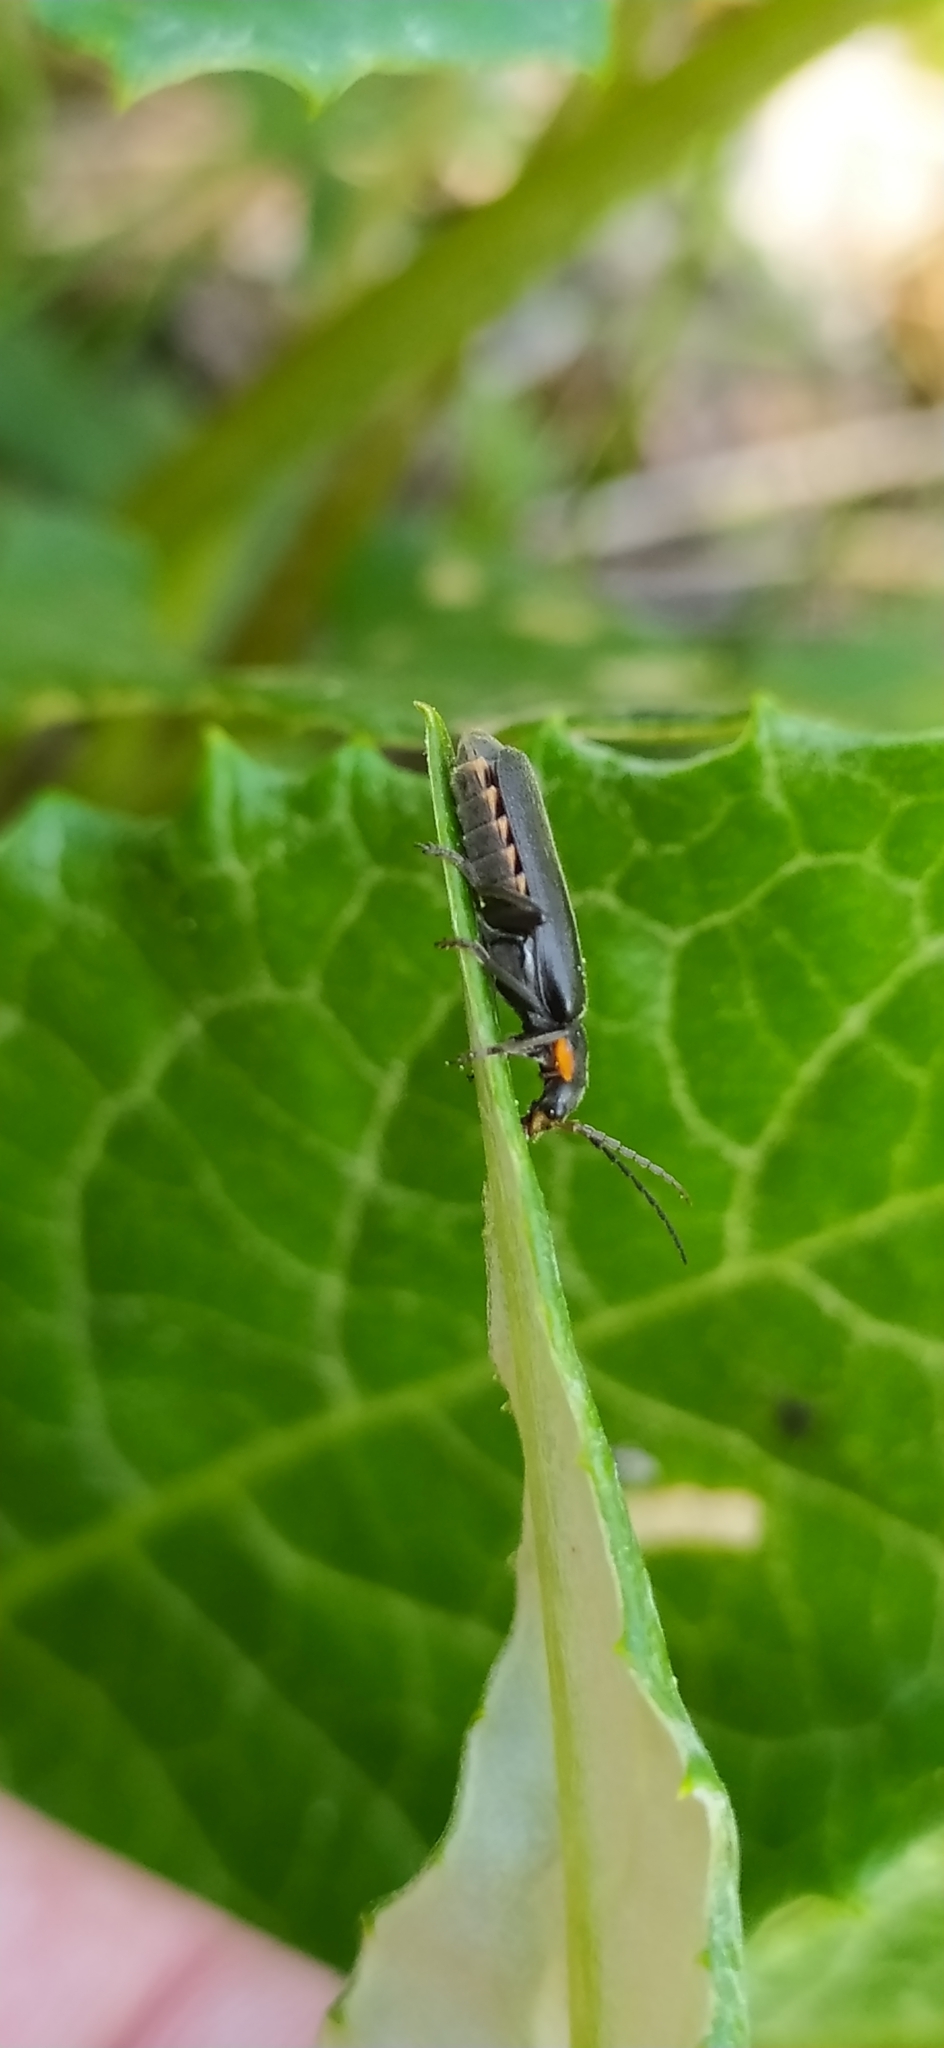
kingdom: Animalia
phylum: Arthropoda
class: Insecta
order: Coleoptera
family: Cantharidae
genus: Cantharis
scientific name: Cantharis obscura
